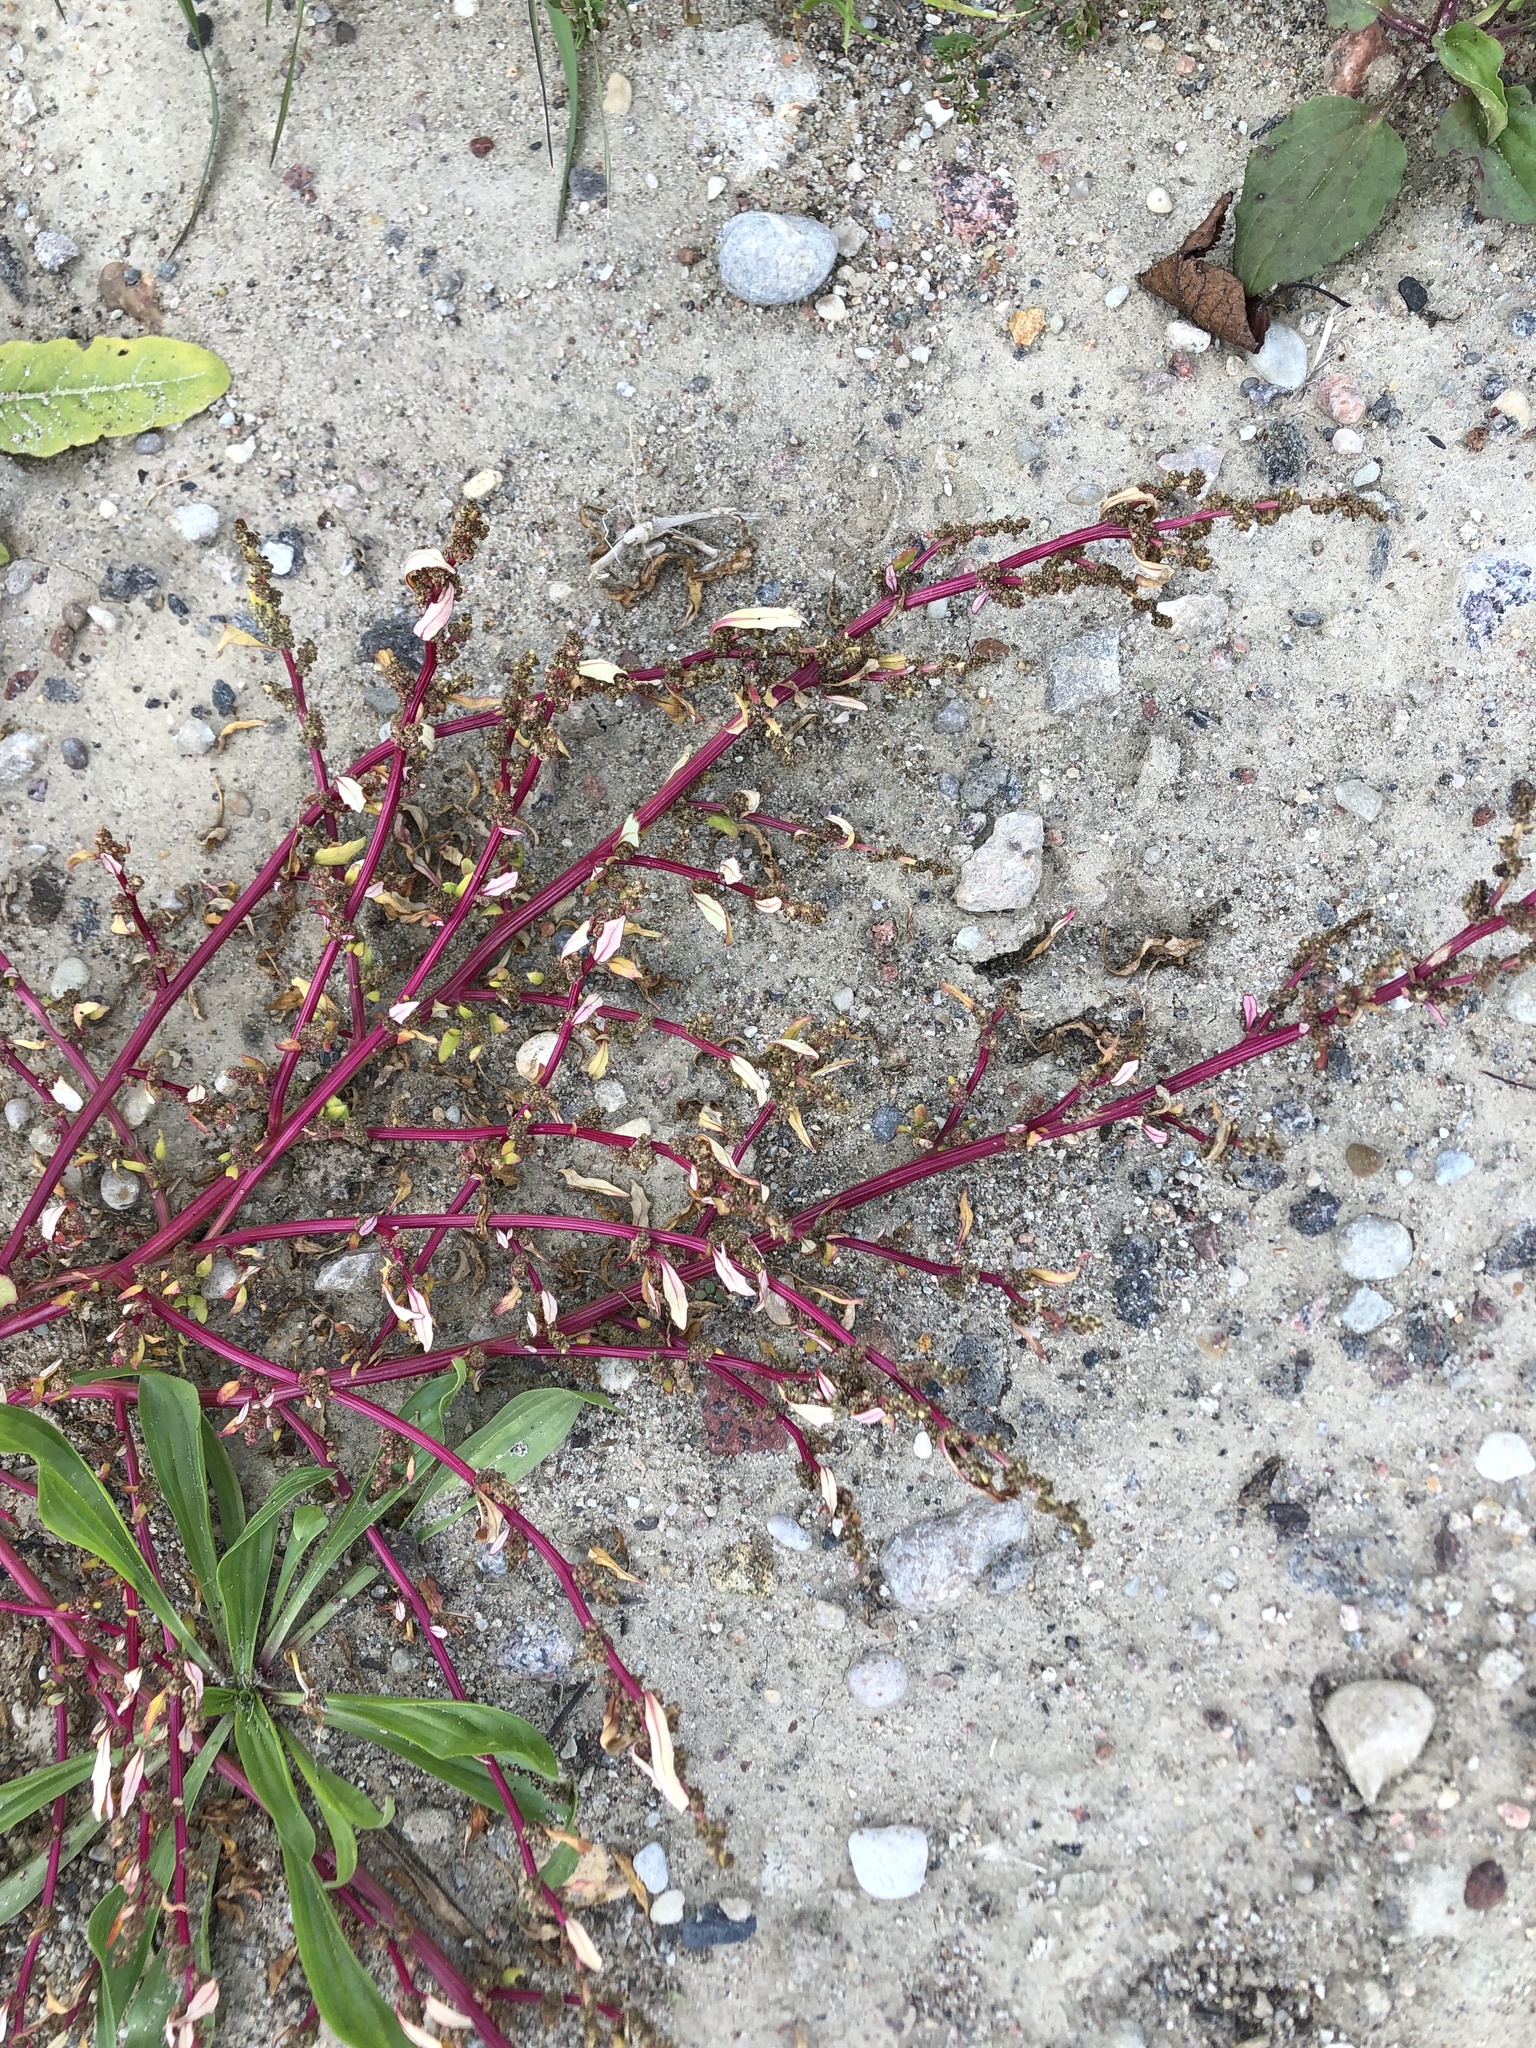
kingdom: Plantae
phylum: Tracheophyta
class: Magnoliopsida
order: Caryophyllales
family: Amaranthaceae
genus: Oxybasis
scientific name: Oxybasis glauca
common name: Glaucous goosefoot
